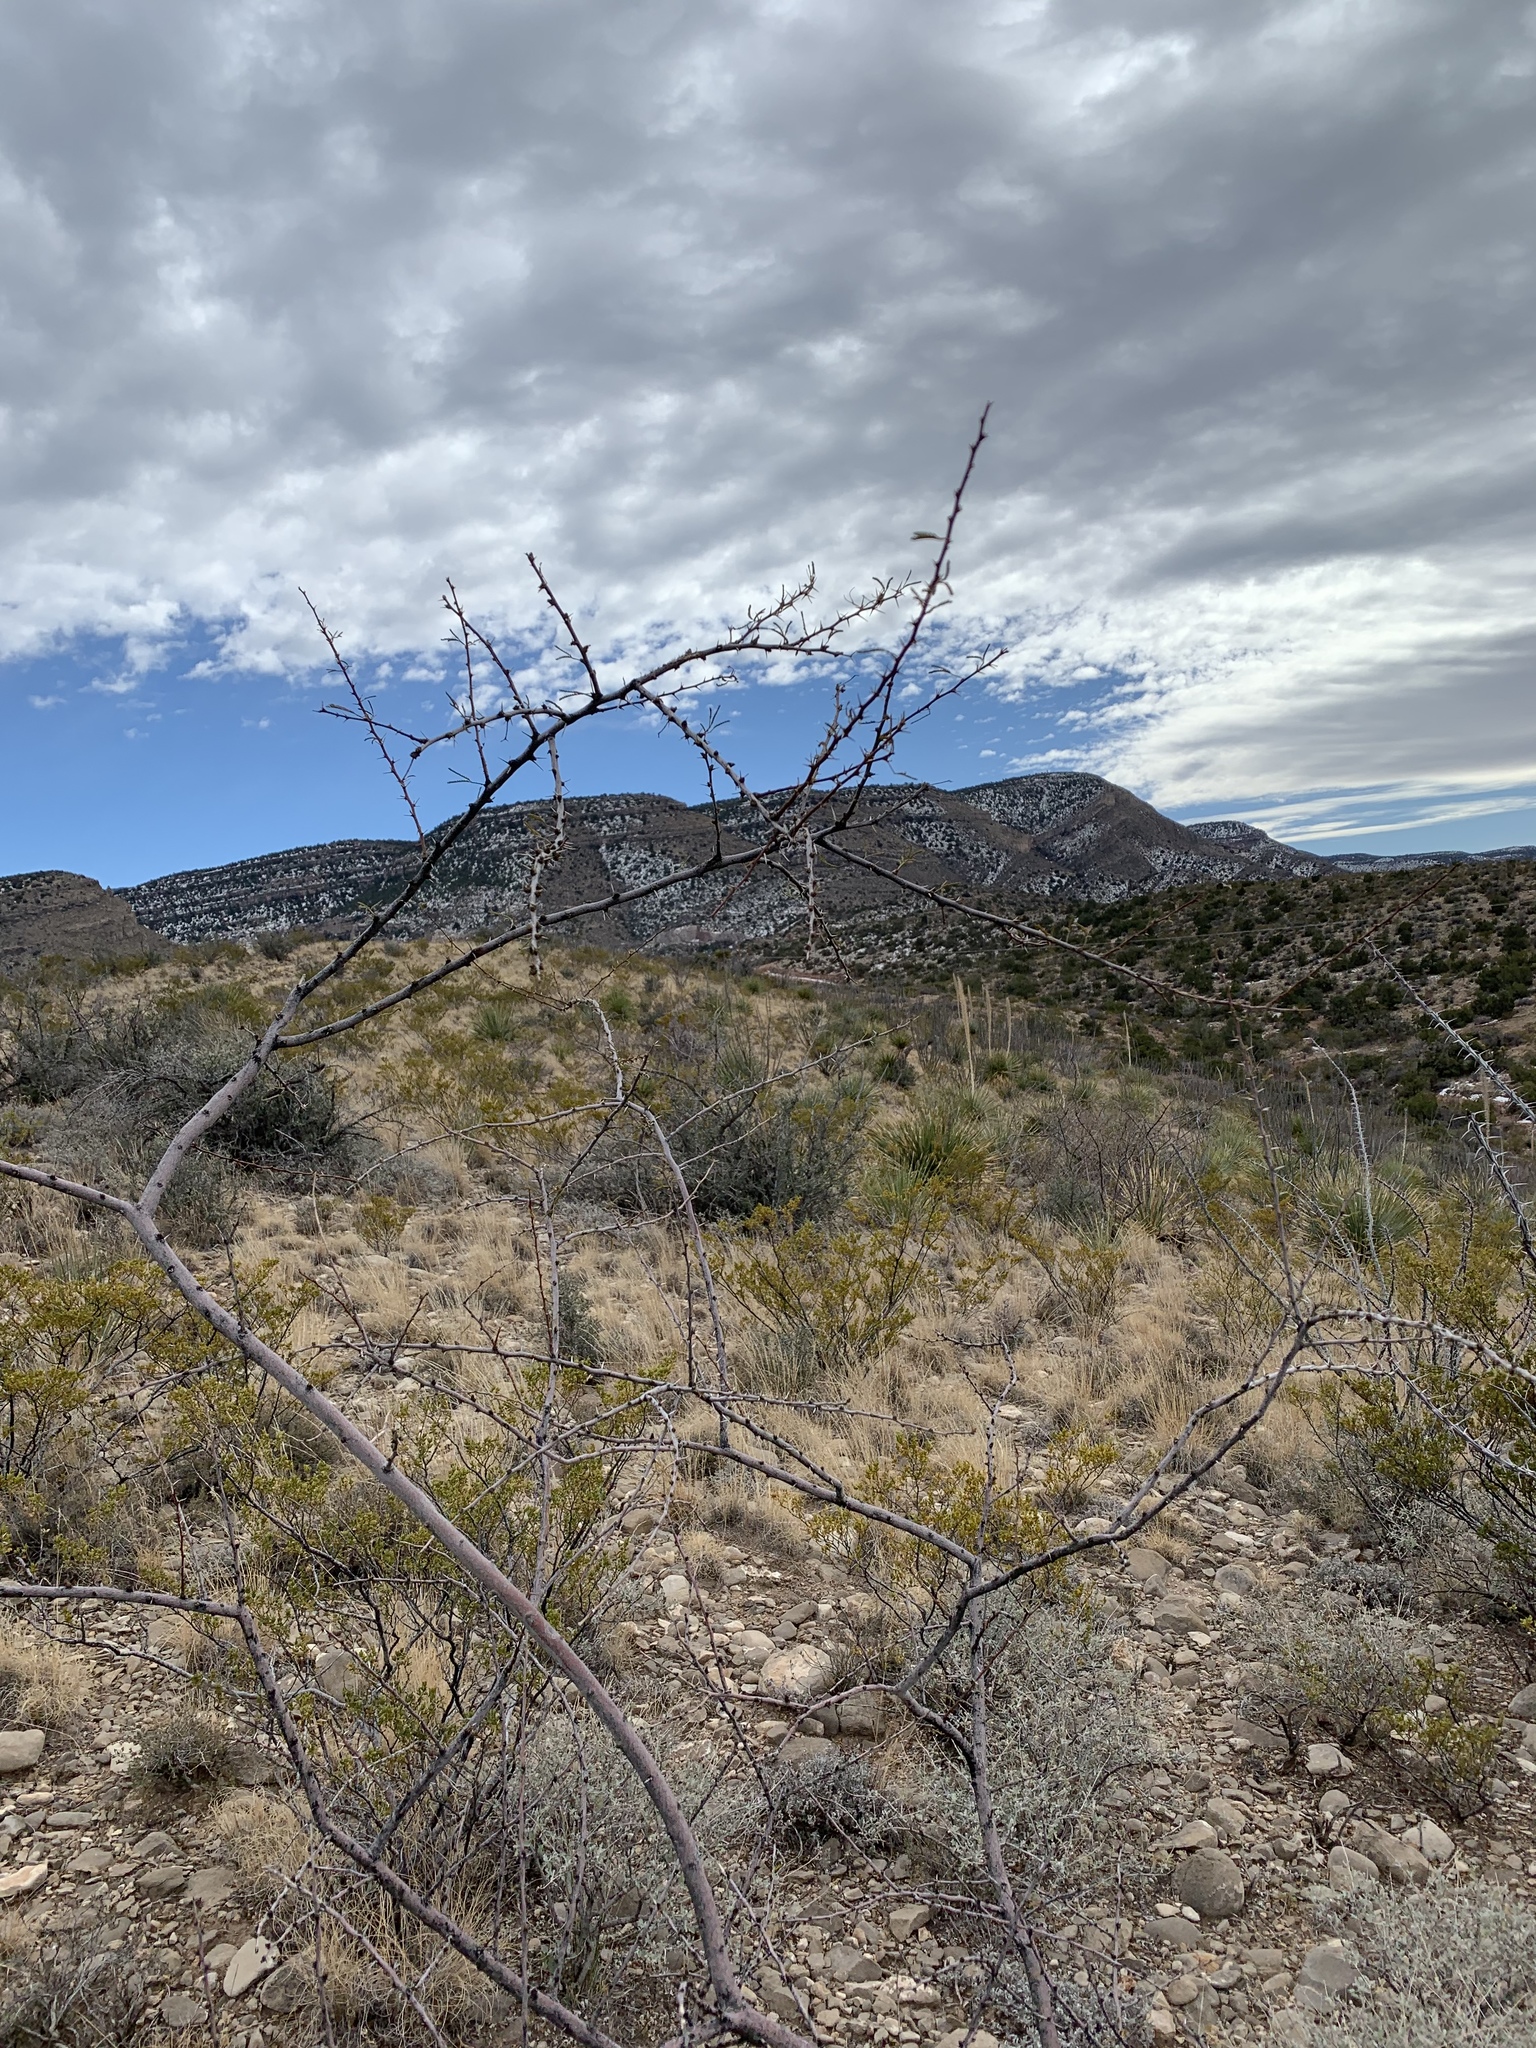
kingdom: Plantae
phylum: Tracheophyta
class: Magnoliopsida
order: Fabales
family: Fabaceae
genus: Vachellia
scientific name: Vachellia constricta
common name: Mescat acacia
